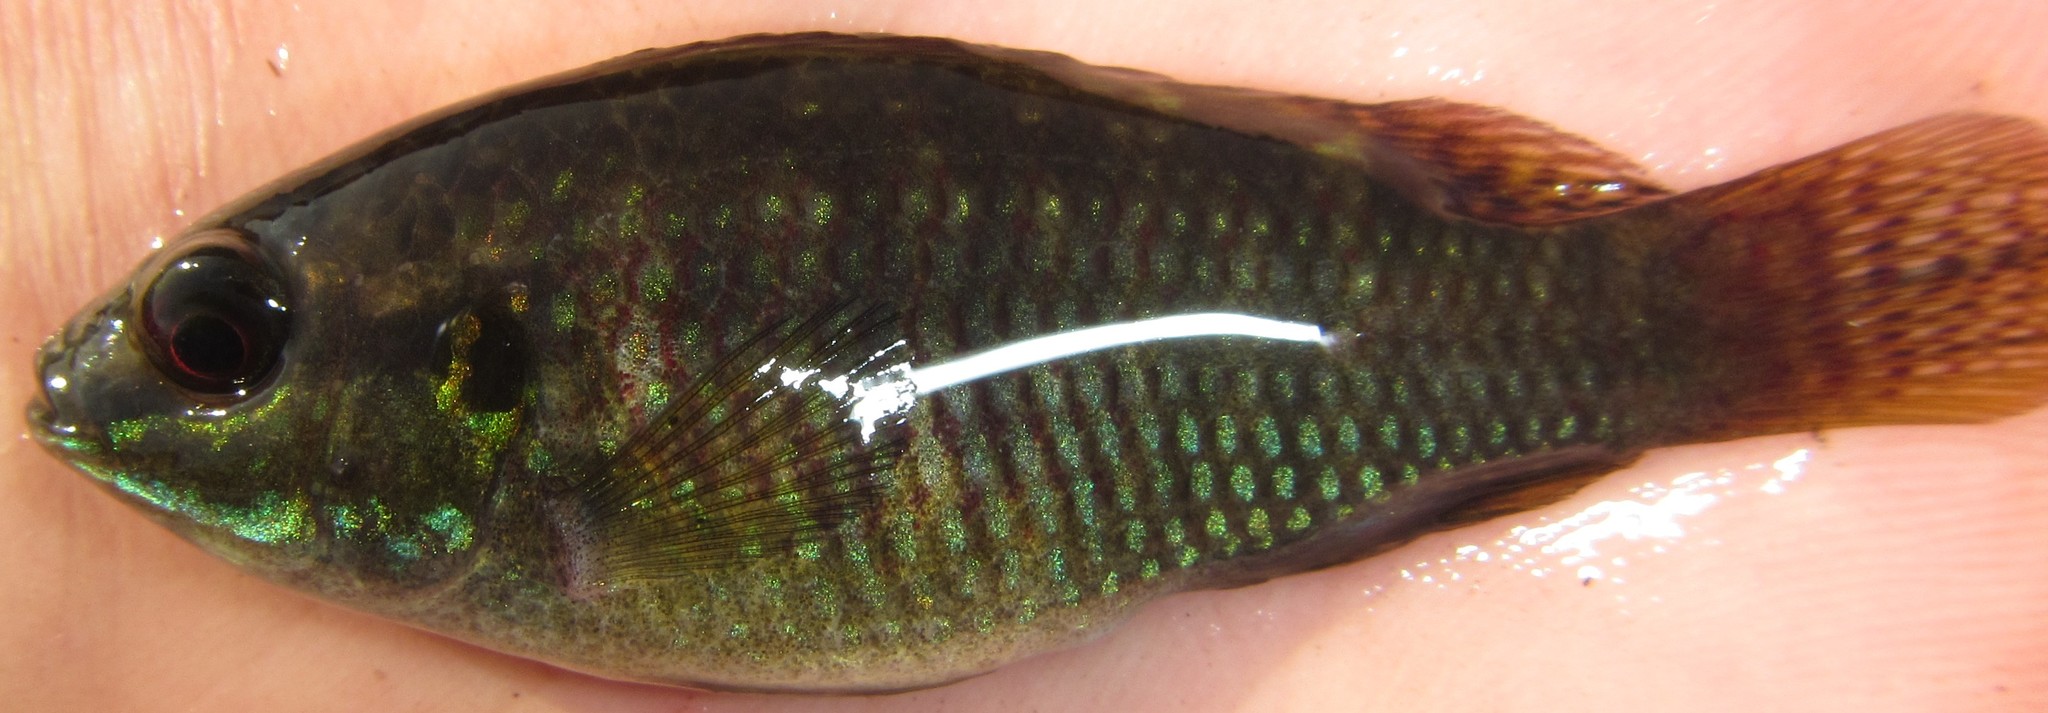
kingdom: Animalia
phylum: Chordata
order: Perciformes
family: Cichlidae
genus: Tilapia
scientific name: Tilapia ruweti
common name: Okavango tilapia
